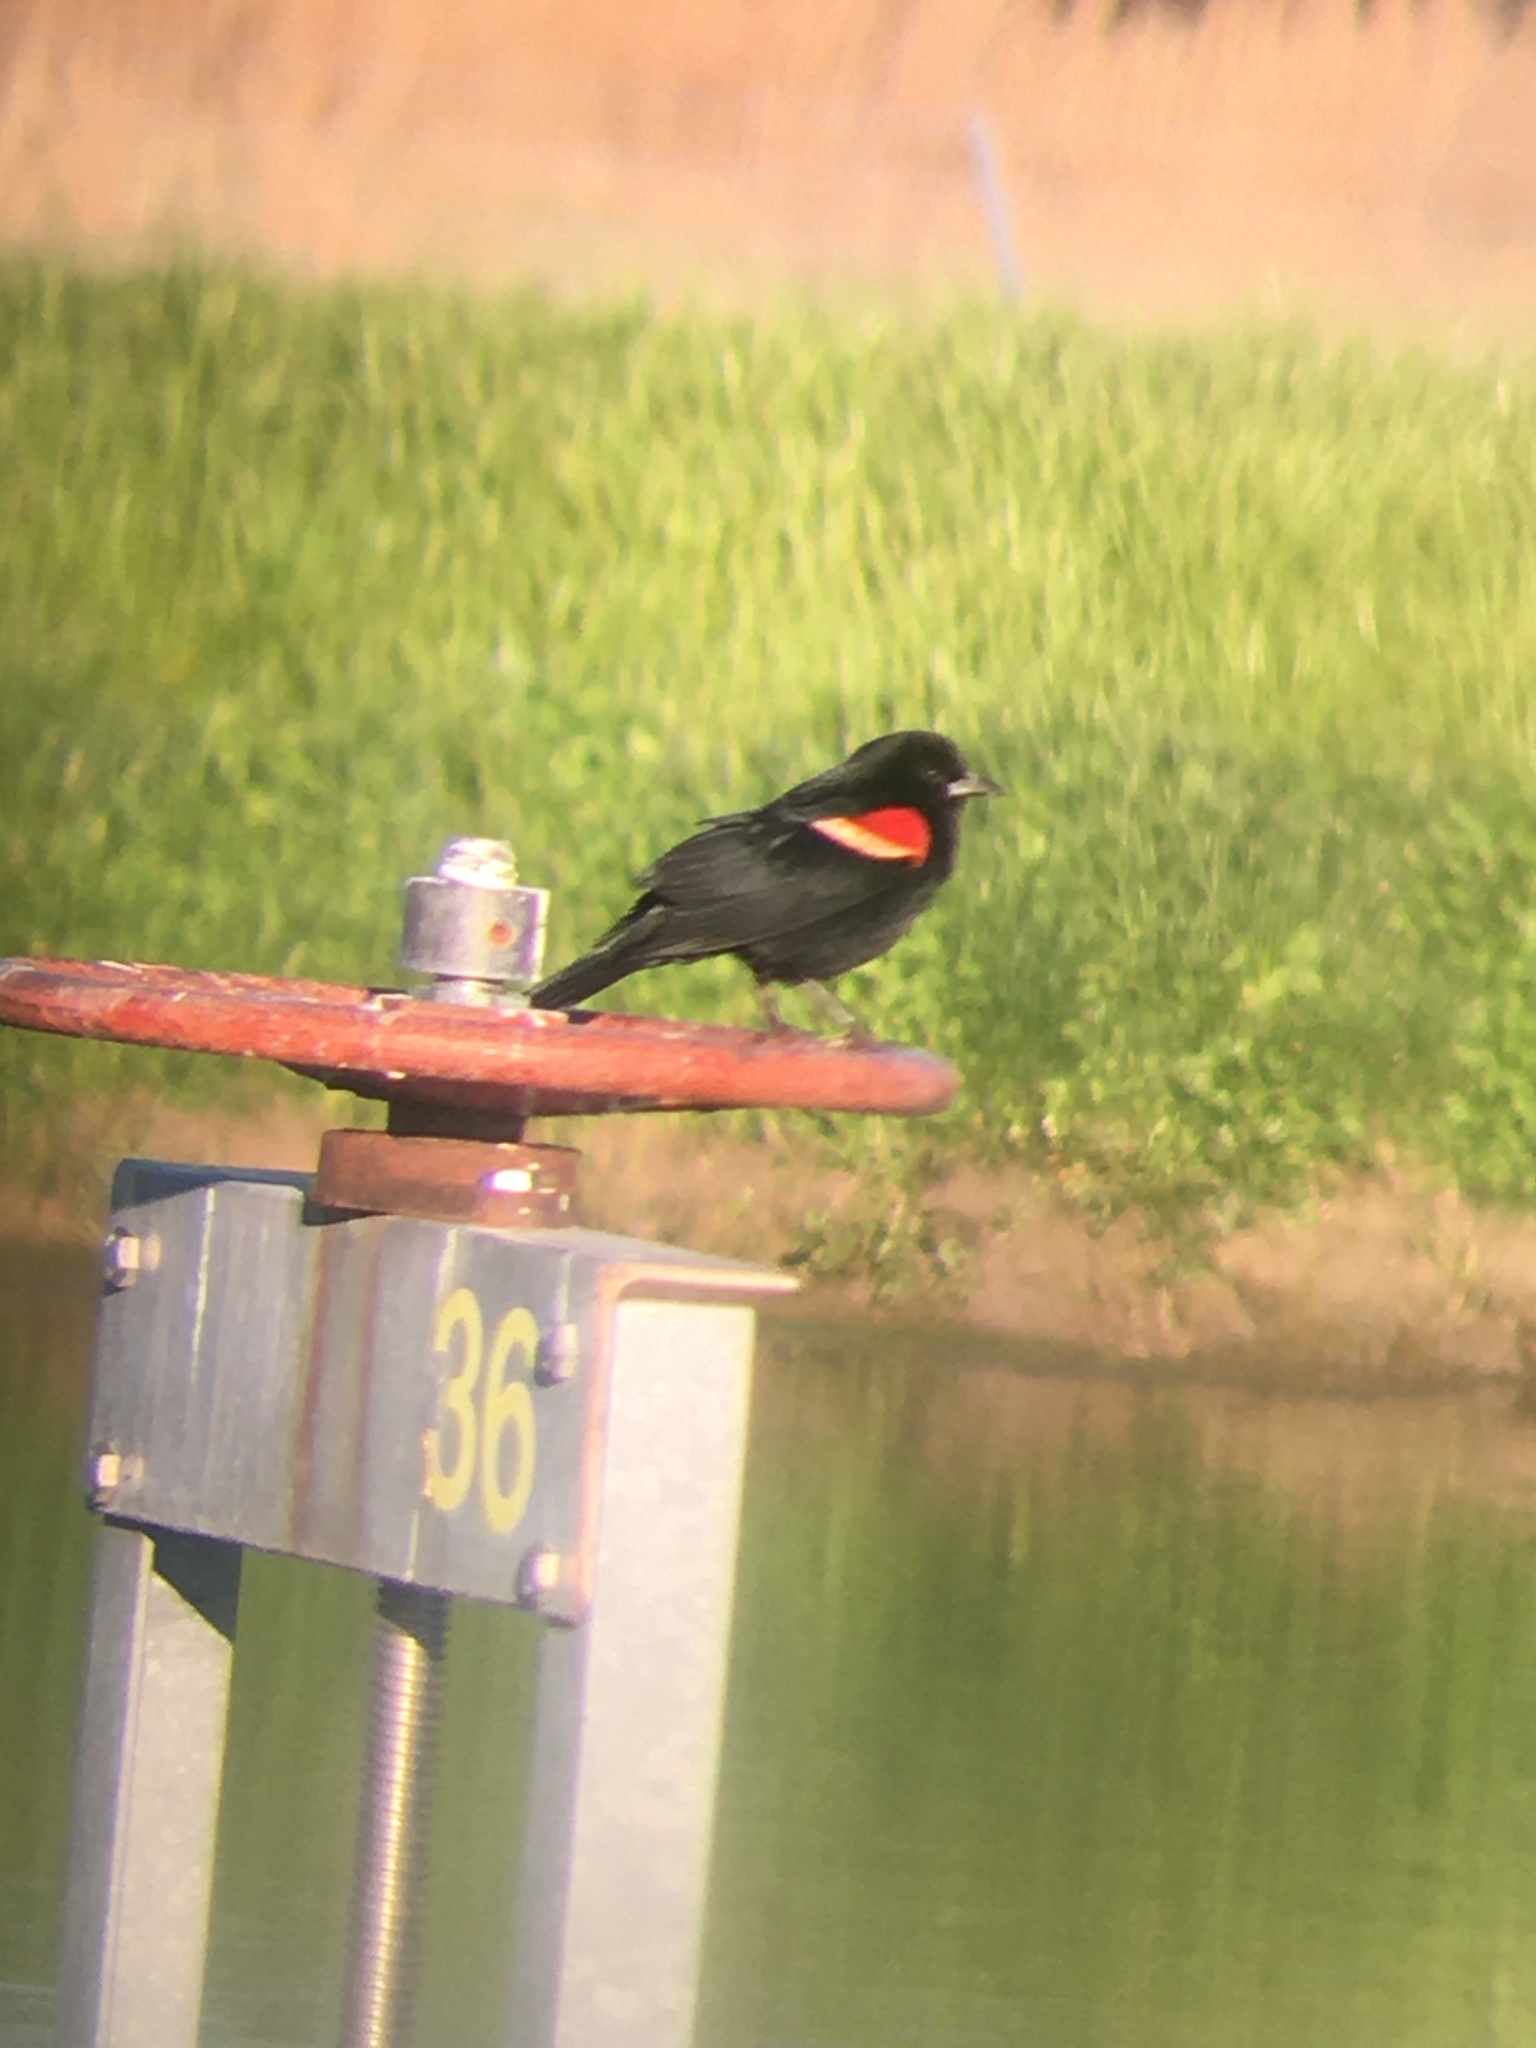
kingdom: Animalia
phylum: Chordata
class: Aves
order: Passeriformes
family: Icteridae
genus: Agelaius
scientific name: Agelaius phoeniceus
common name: Red-winged blackbird
